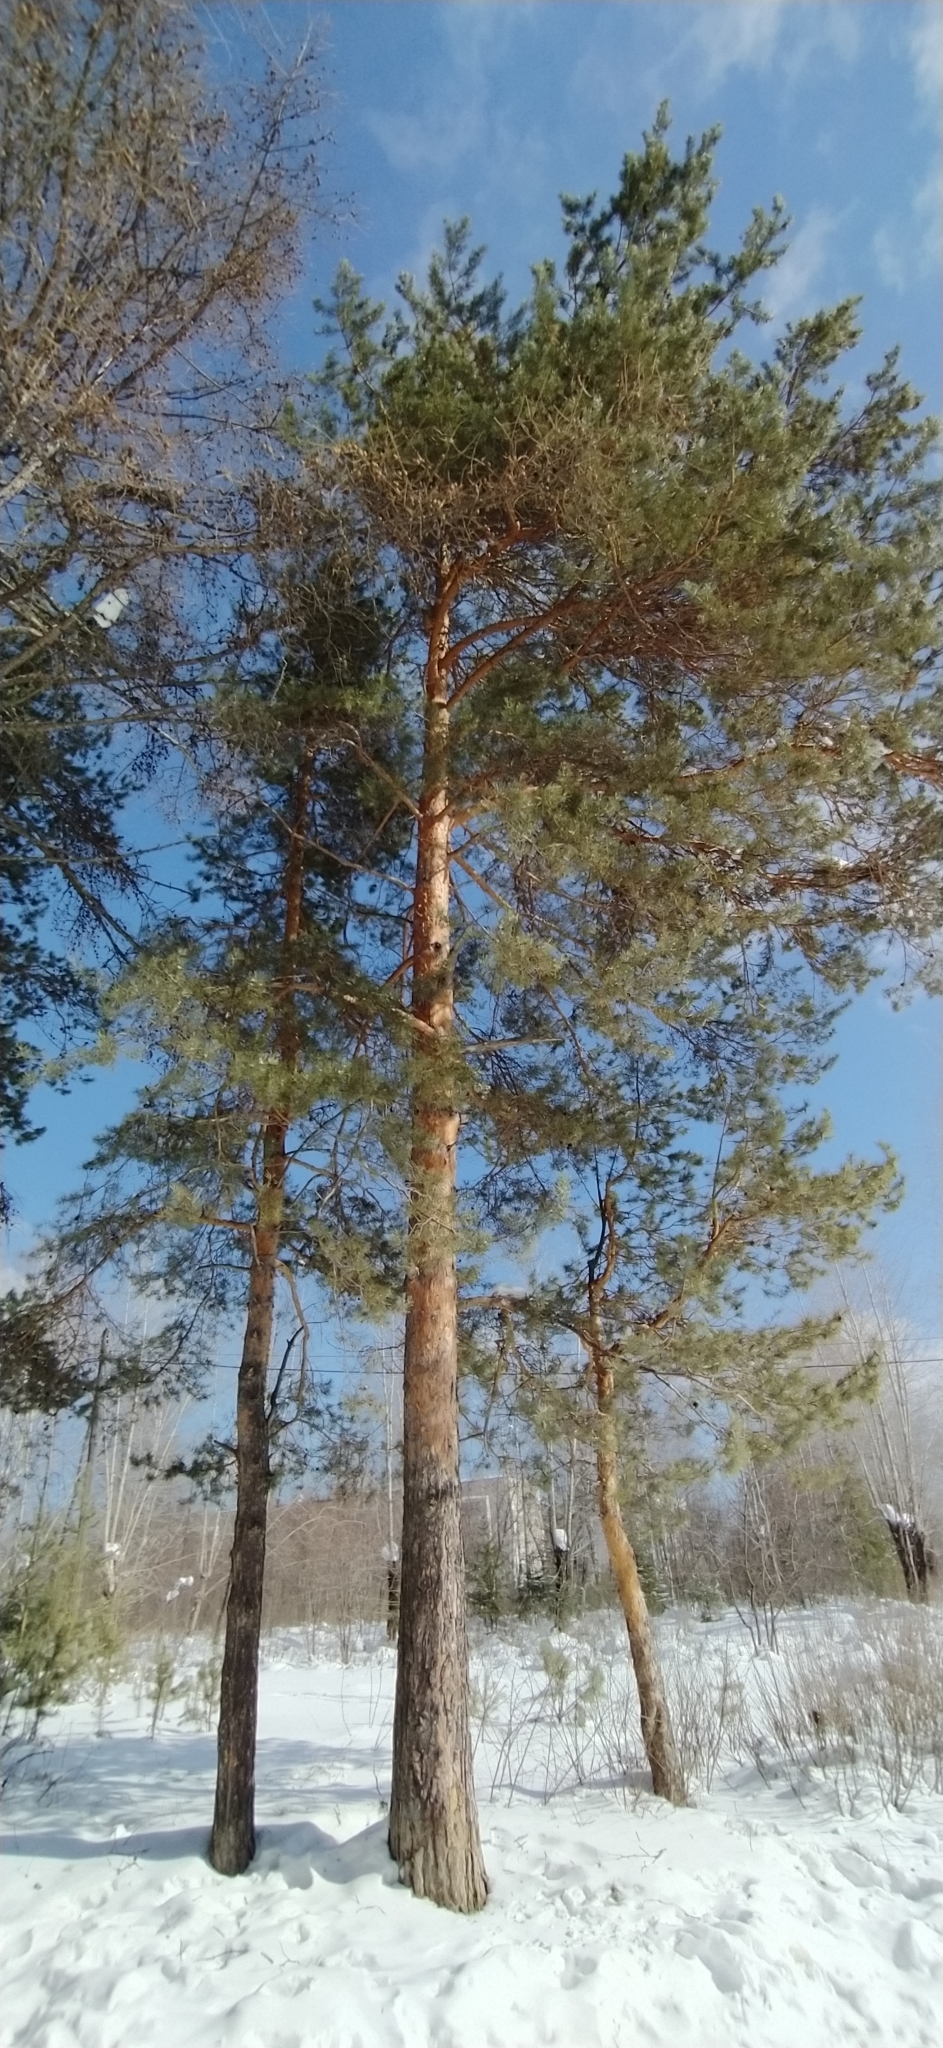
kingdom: Plantae
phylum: Tracheophyta
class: Pinopsida
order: Pinales
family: Pinaceae
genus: Pinus
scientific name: Pinus sylvestris
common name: Scots pine
